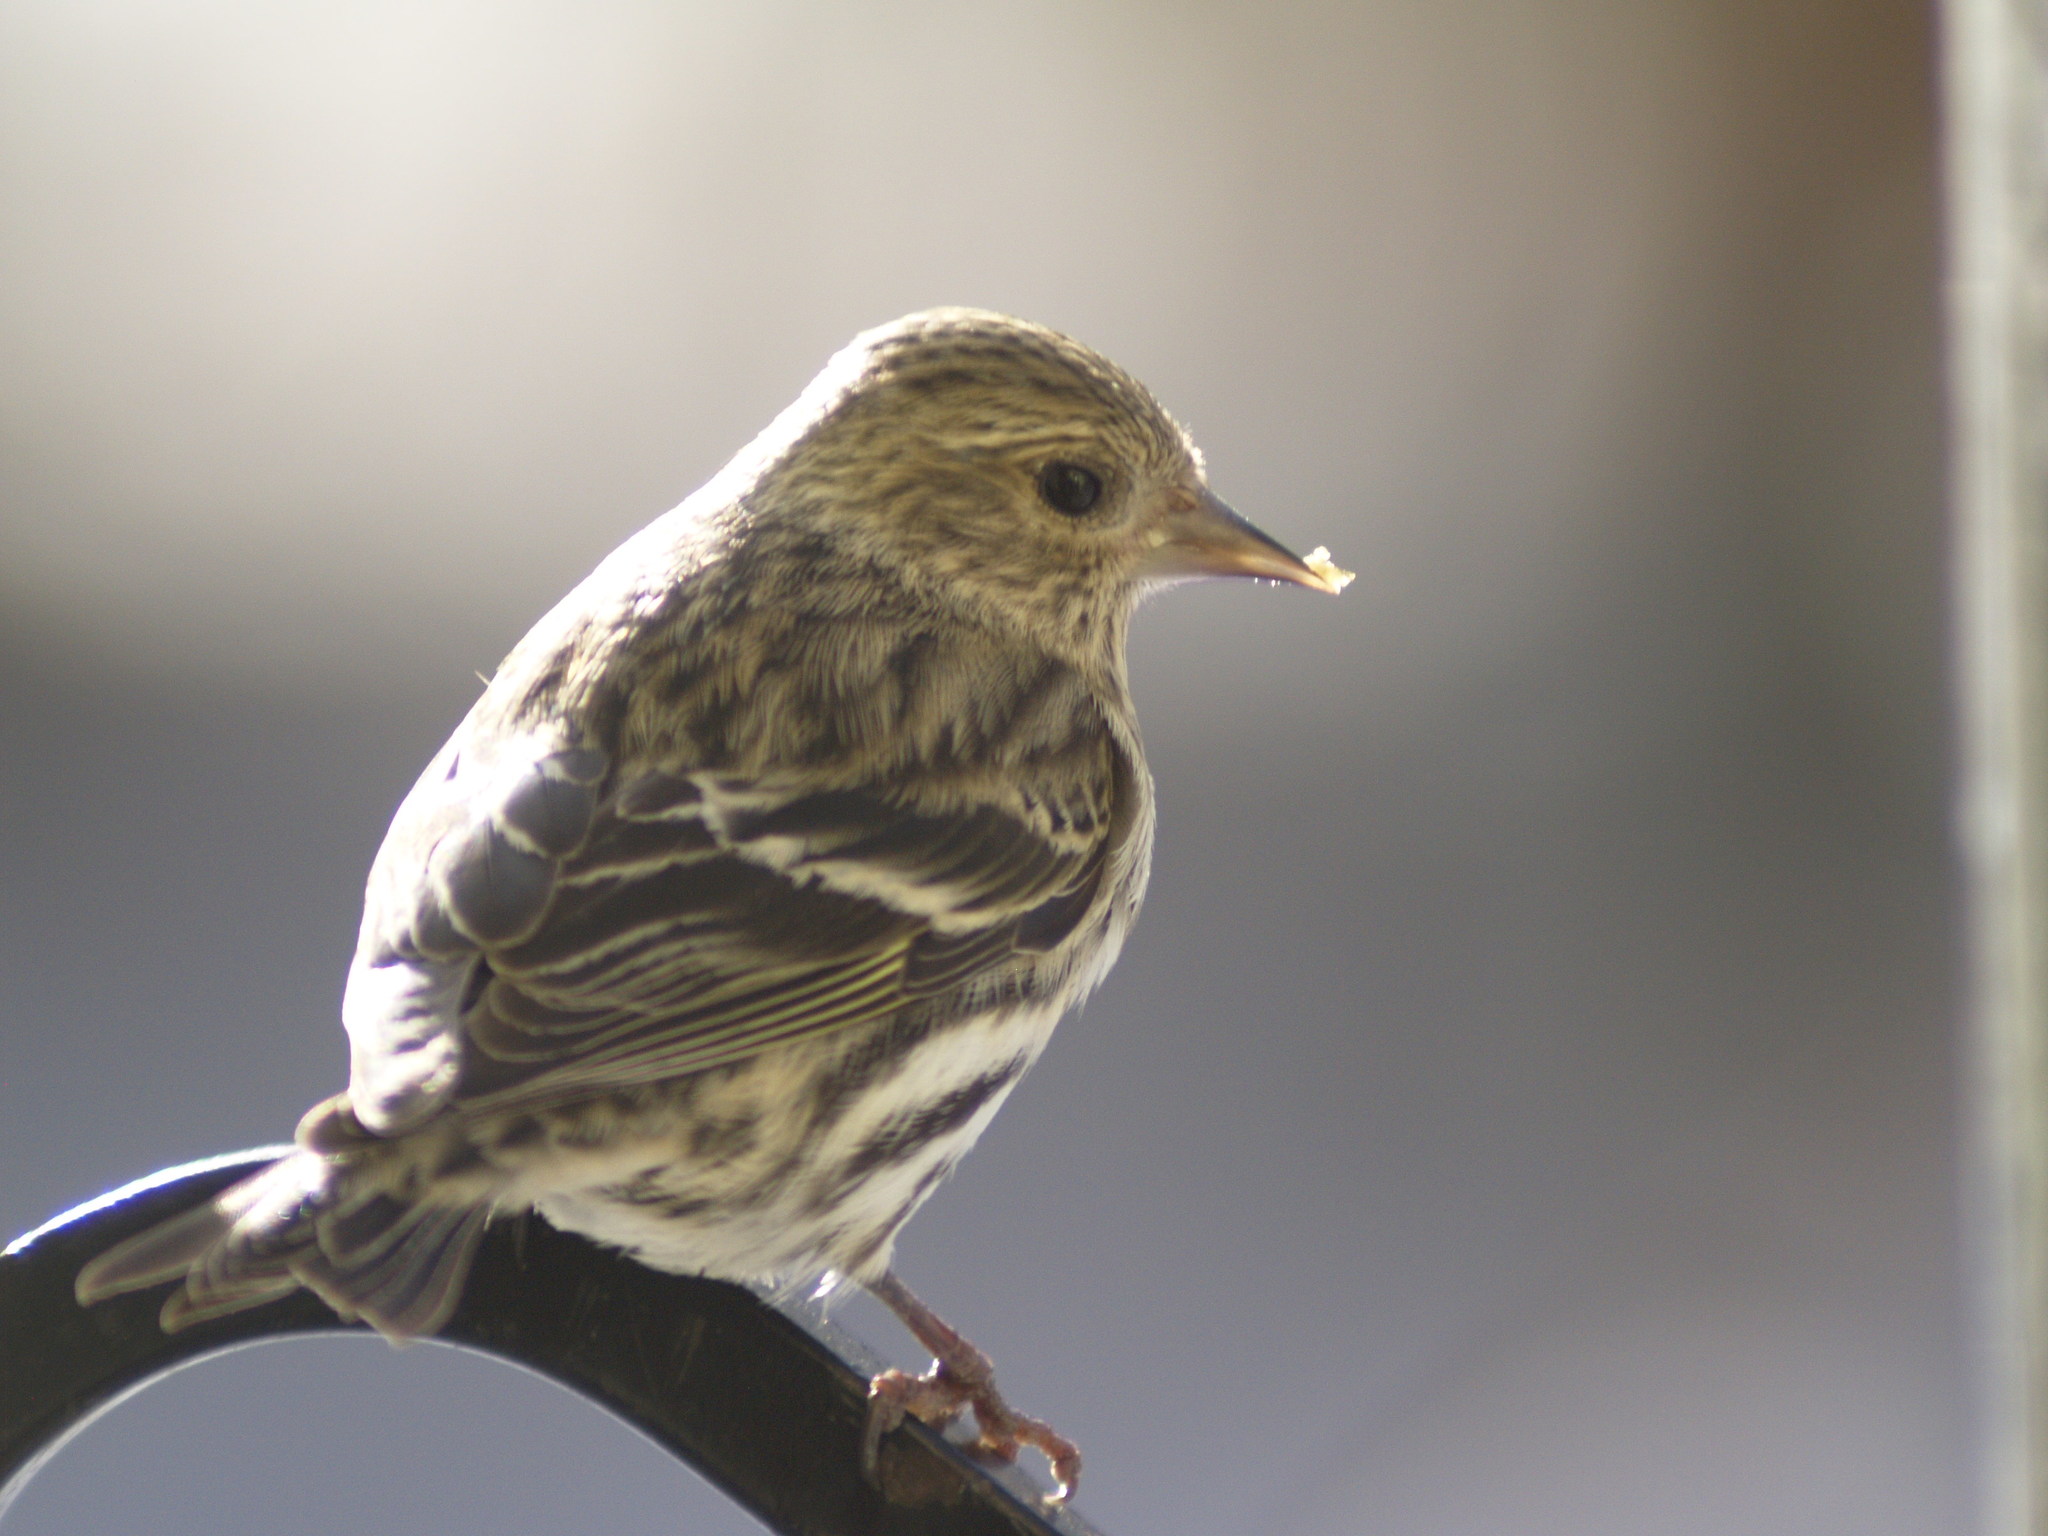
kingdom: Animalia
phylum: Chordata
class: Aves
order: Passeriformes
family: Fringillidae
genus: Spinus
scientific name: Spinus pinus
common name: Pine siskin
